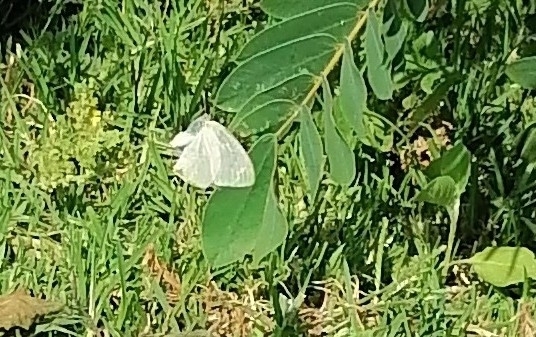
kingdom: Animalia
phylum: Arthropoda
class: Insecta
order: Lepidoptera
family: Pieridae
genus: Catopsilia
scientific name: Catopsilia florella
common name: African migrant
